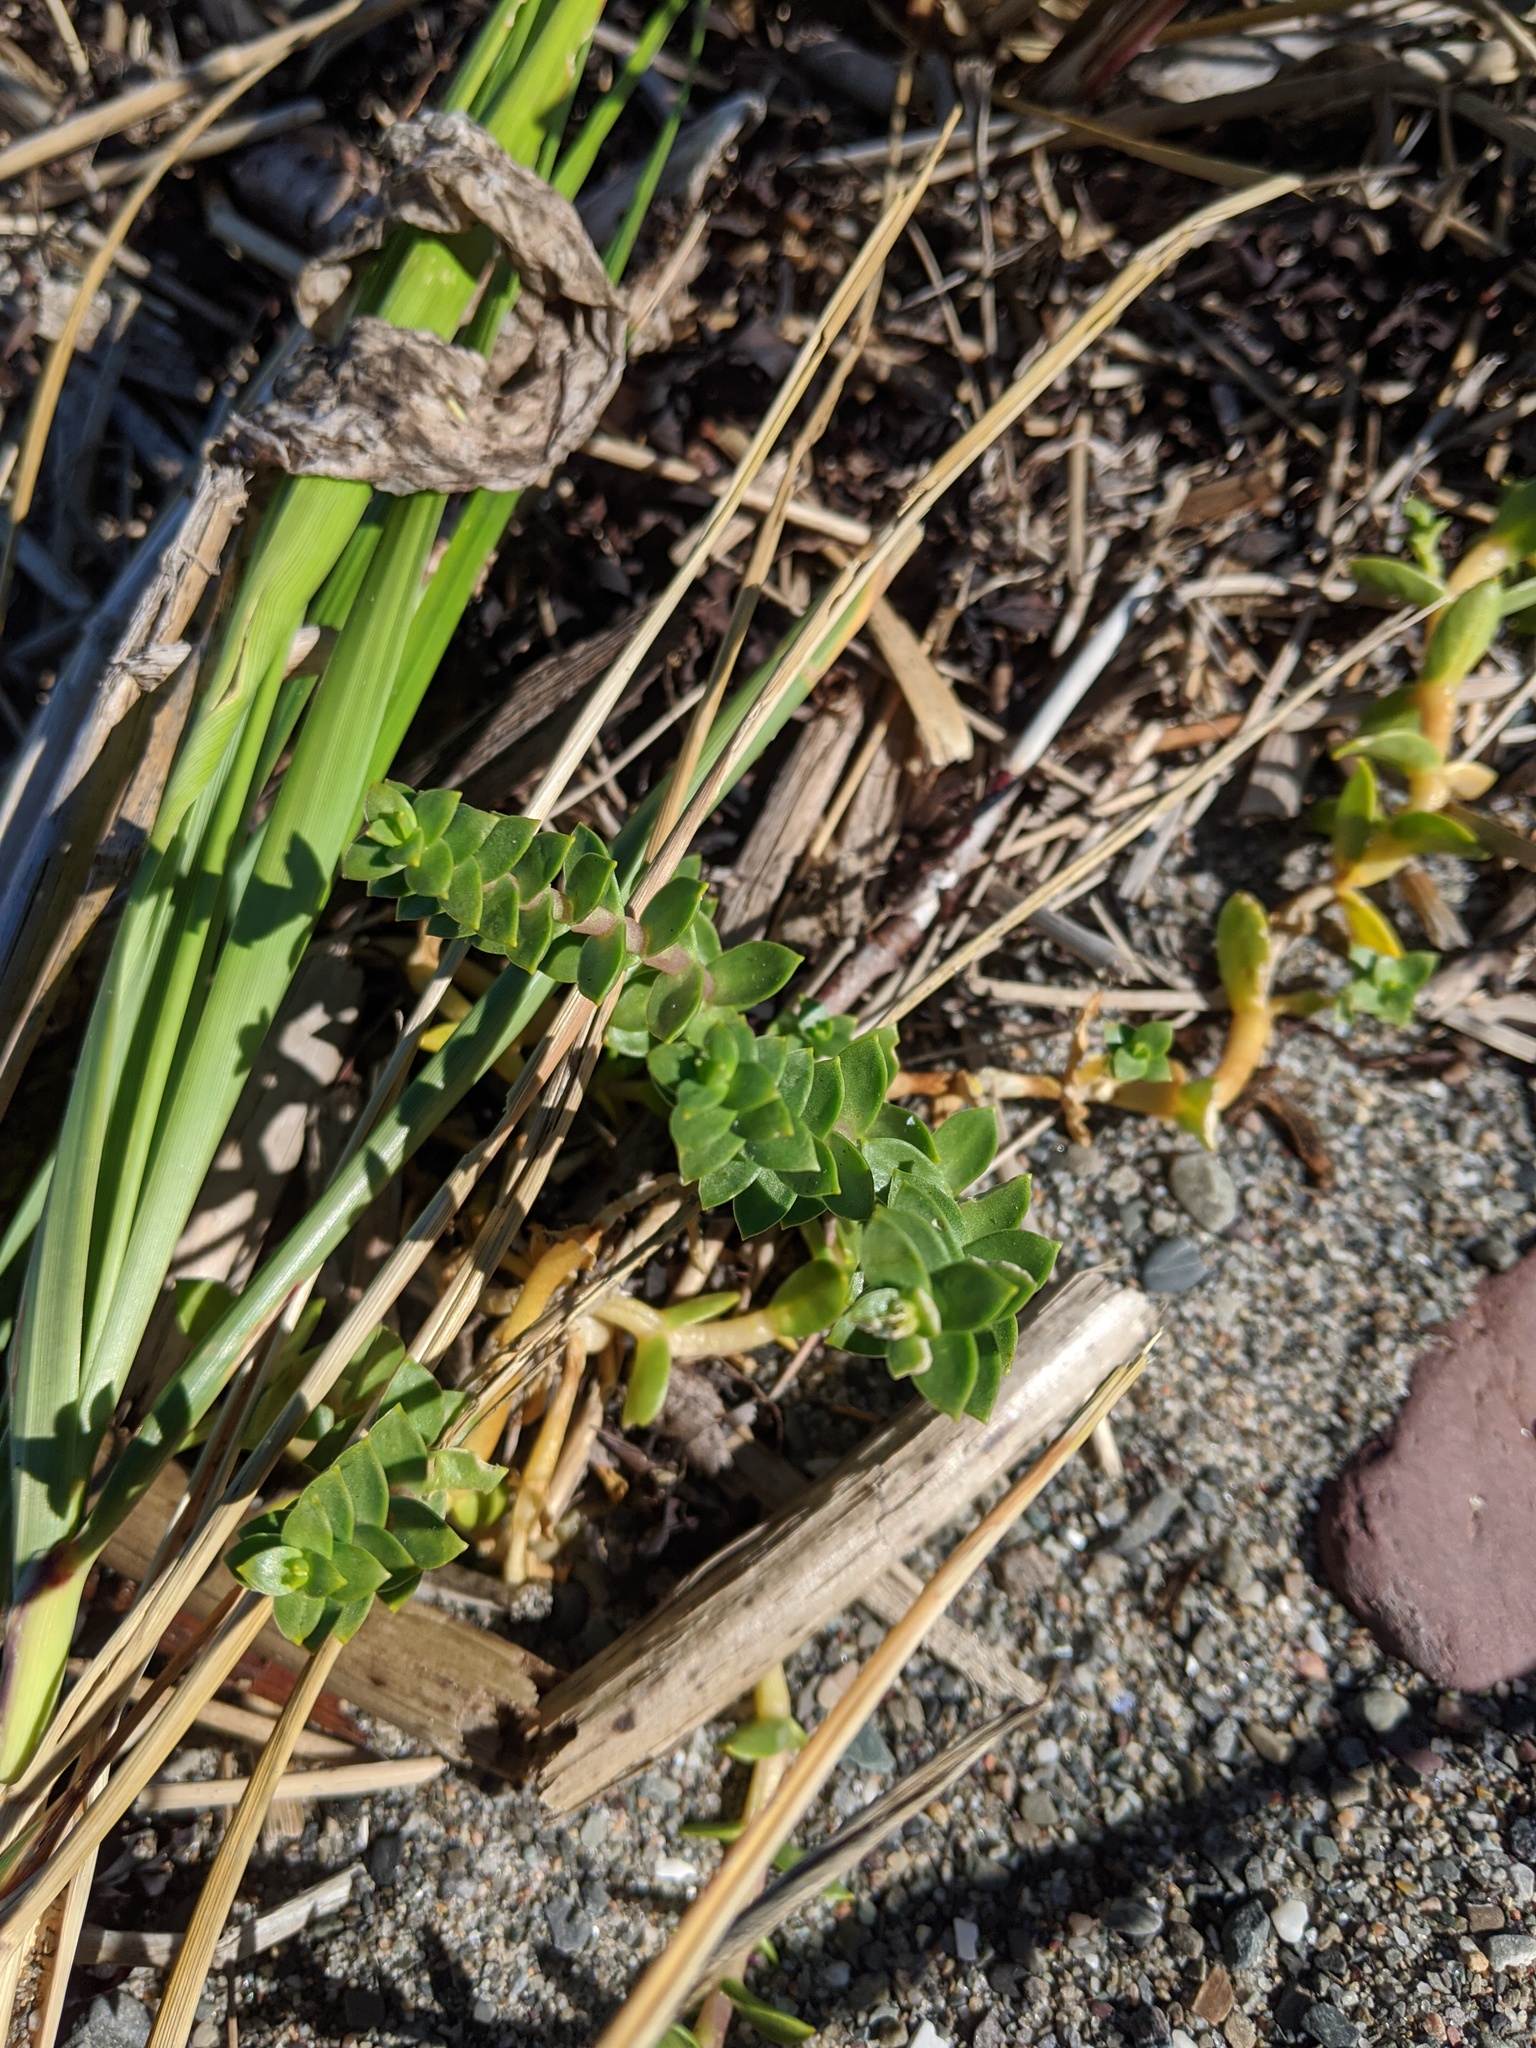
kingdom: Plantae
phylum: Tracheophyta
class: Magnoliopsida
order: Caryophyllales
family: Caryophyllaceae
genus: Honckenya
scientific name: Honckenya peploides
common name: Sea sandwort
